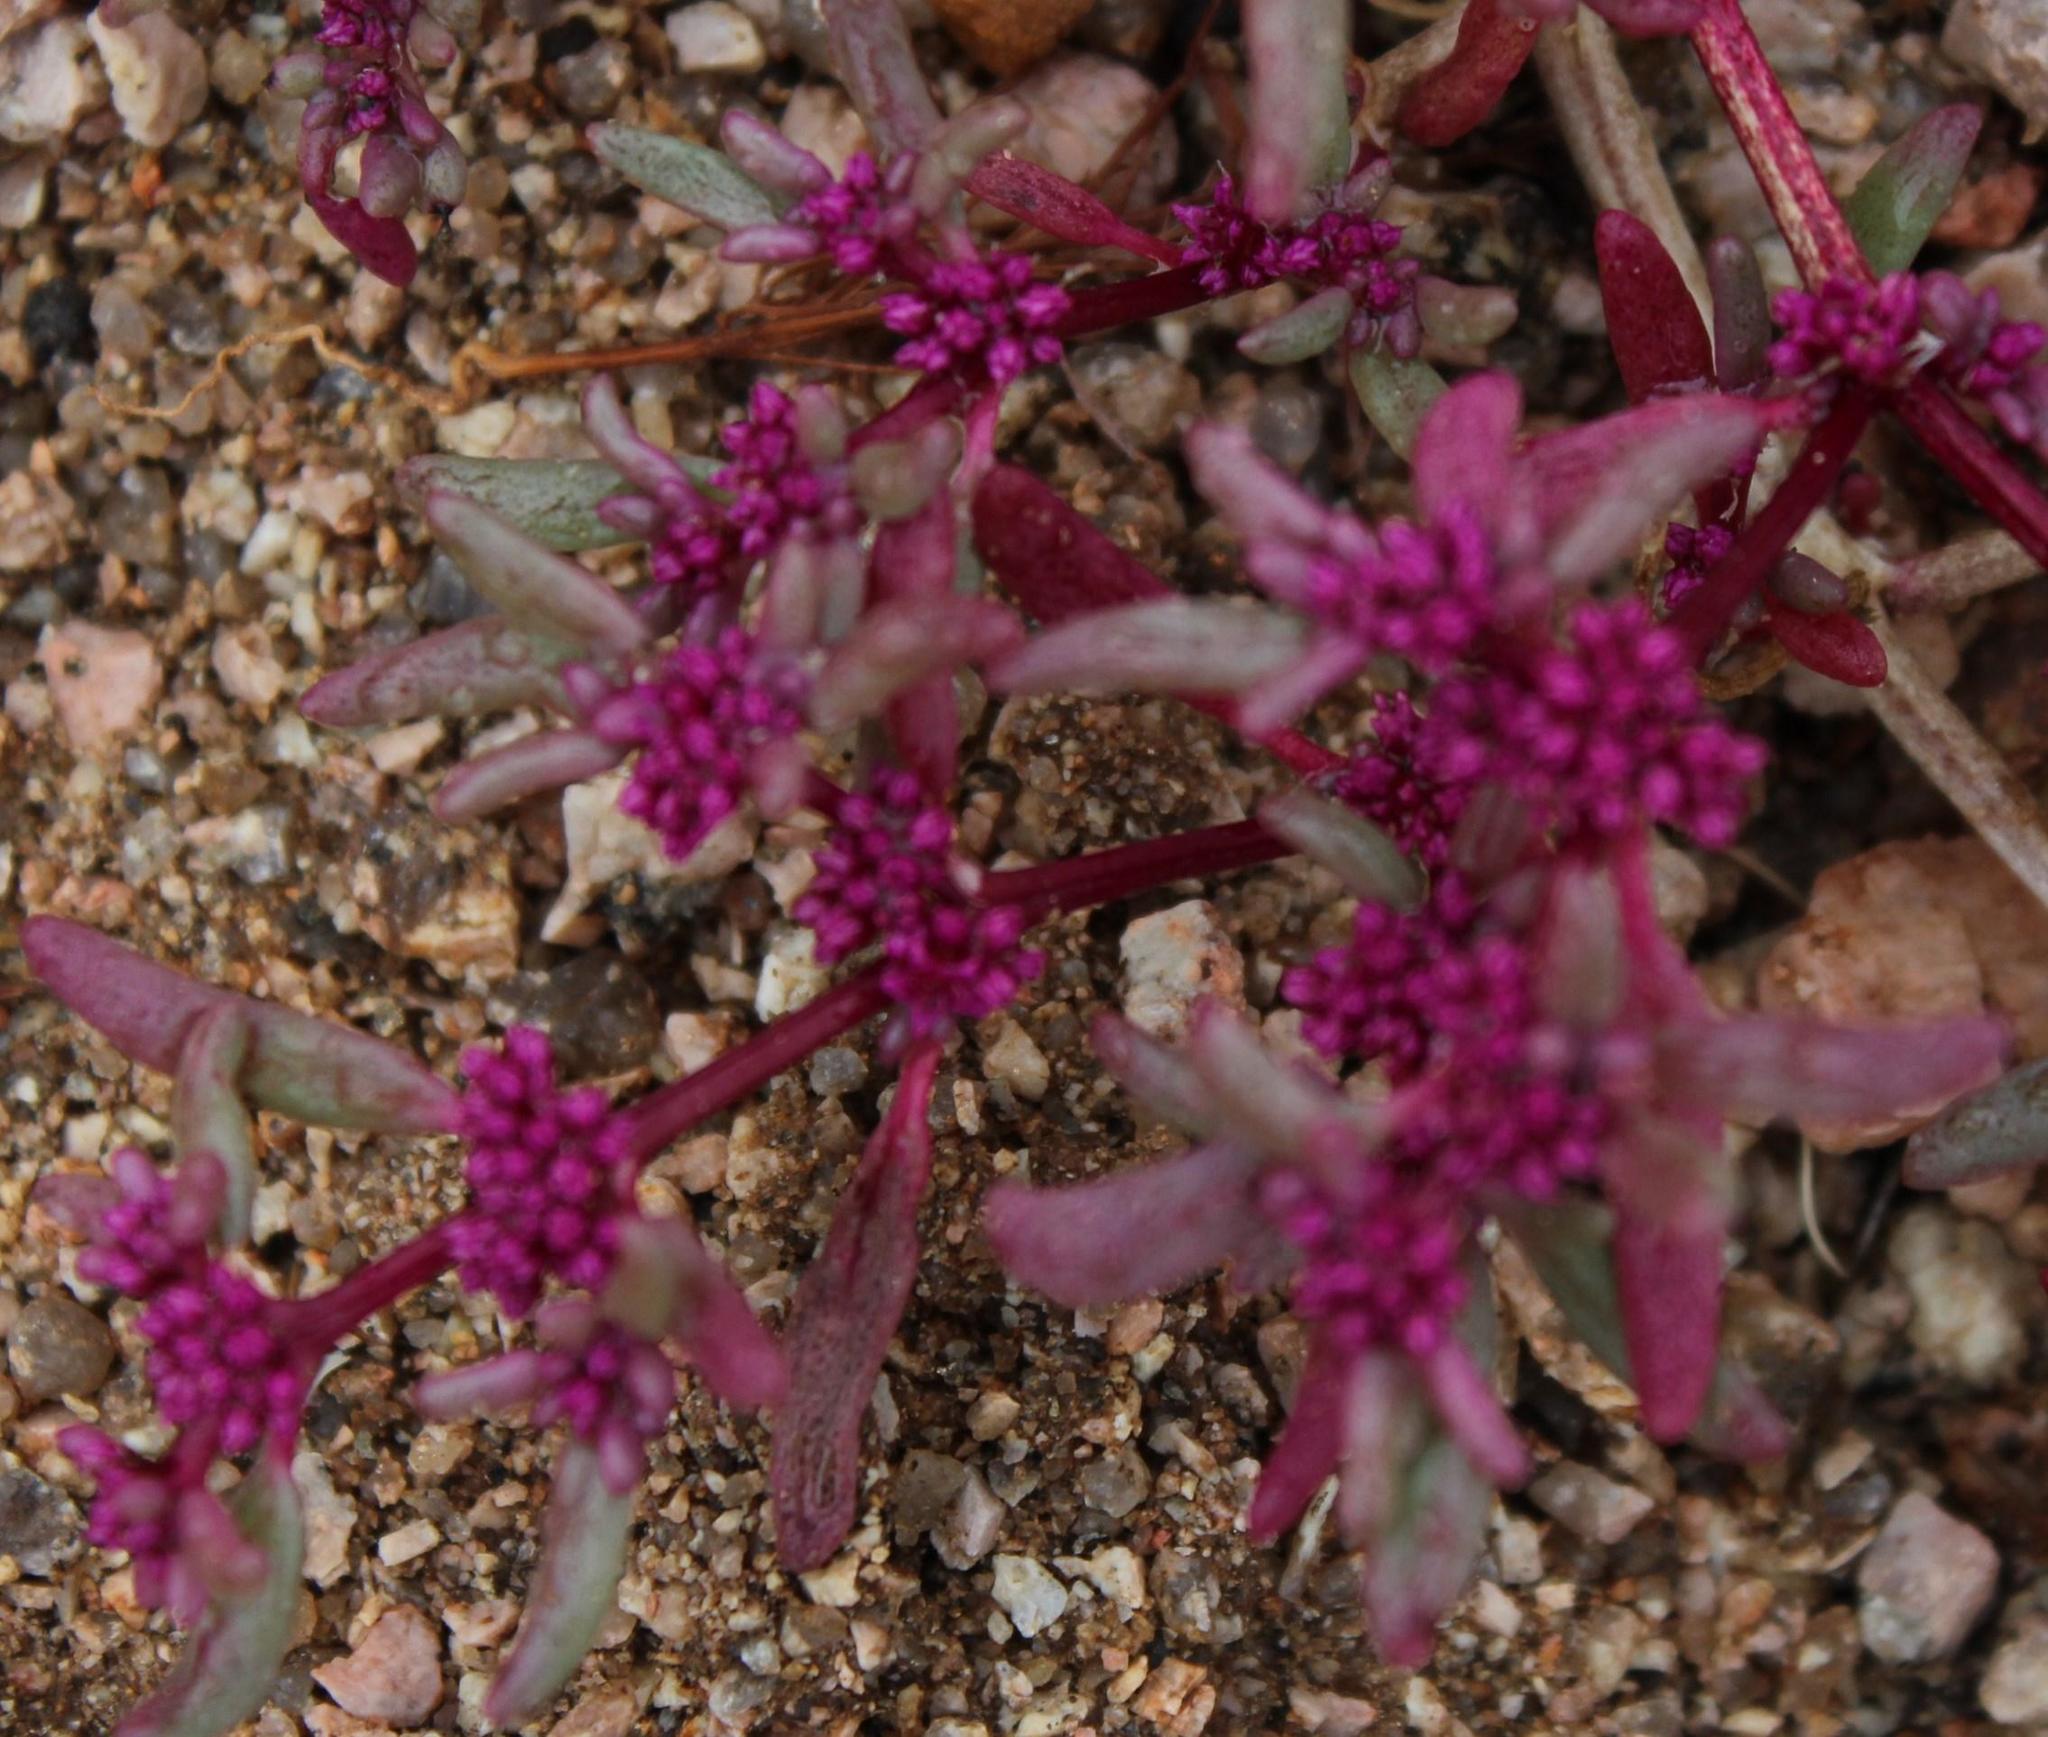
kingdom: Plantae
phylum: Tracheophyta
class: Magnoliopsida
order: Caryophyllales
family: Aizoaceae
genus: Trianthema
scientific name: Trianthema parvifolium
